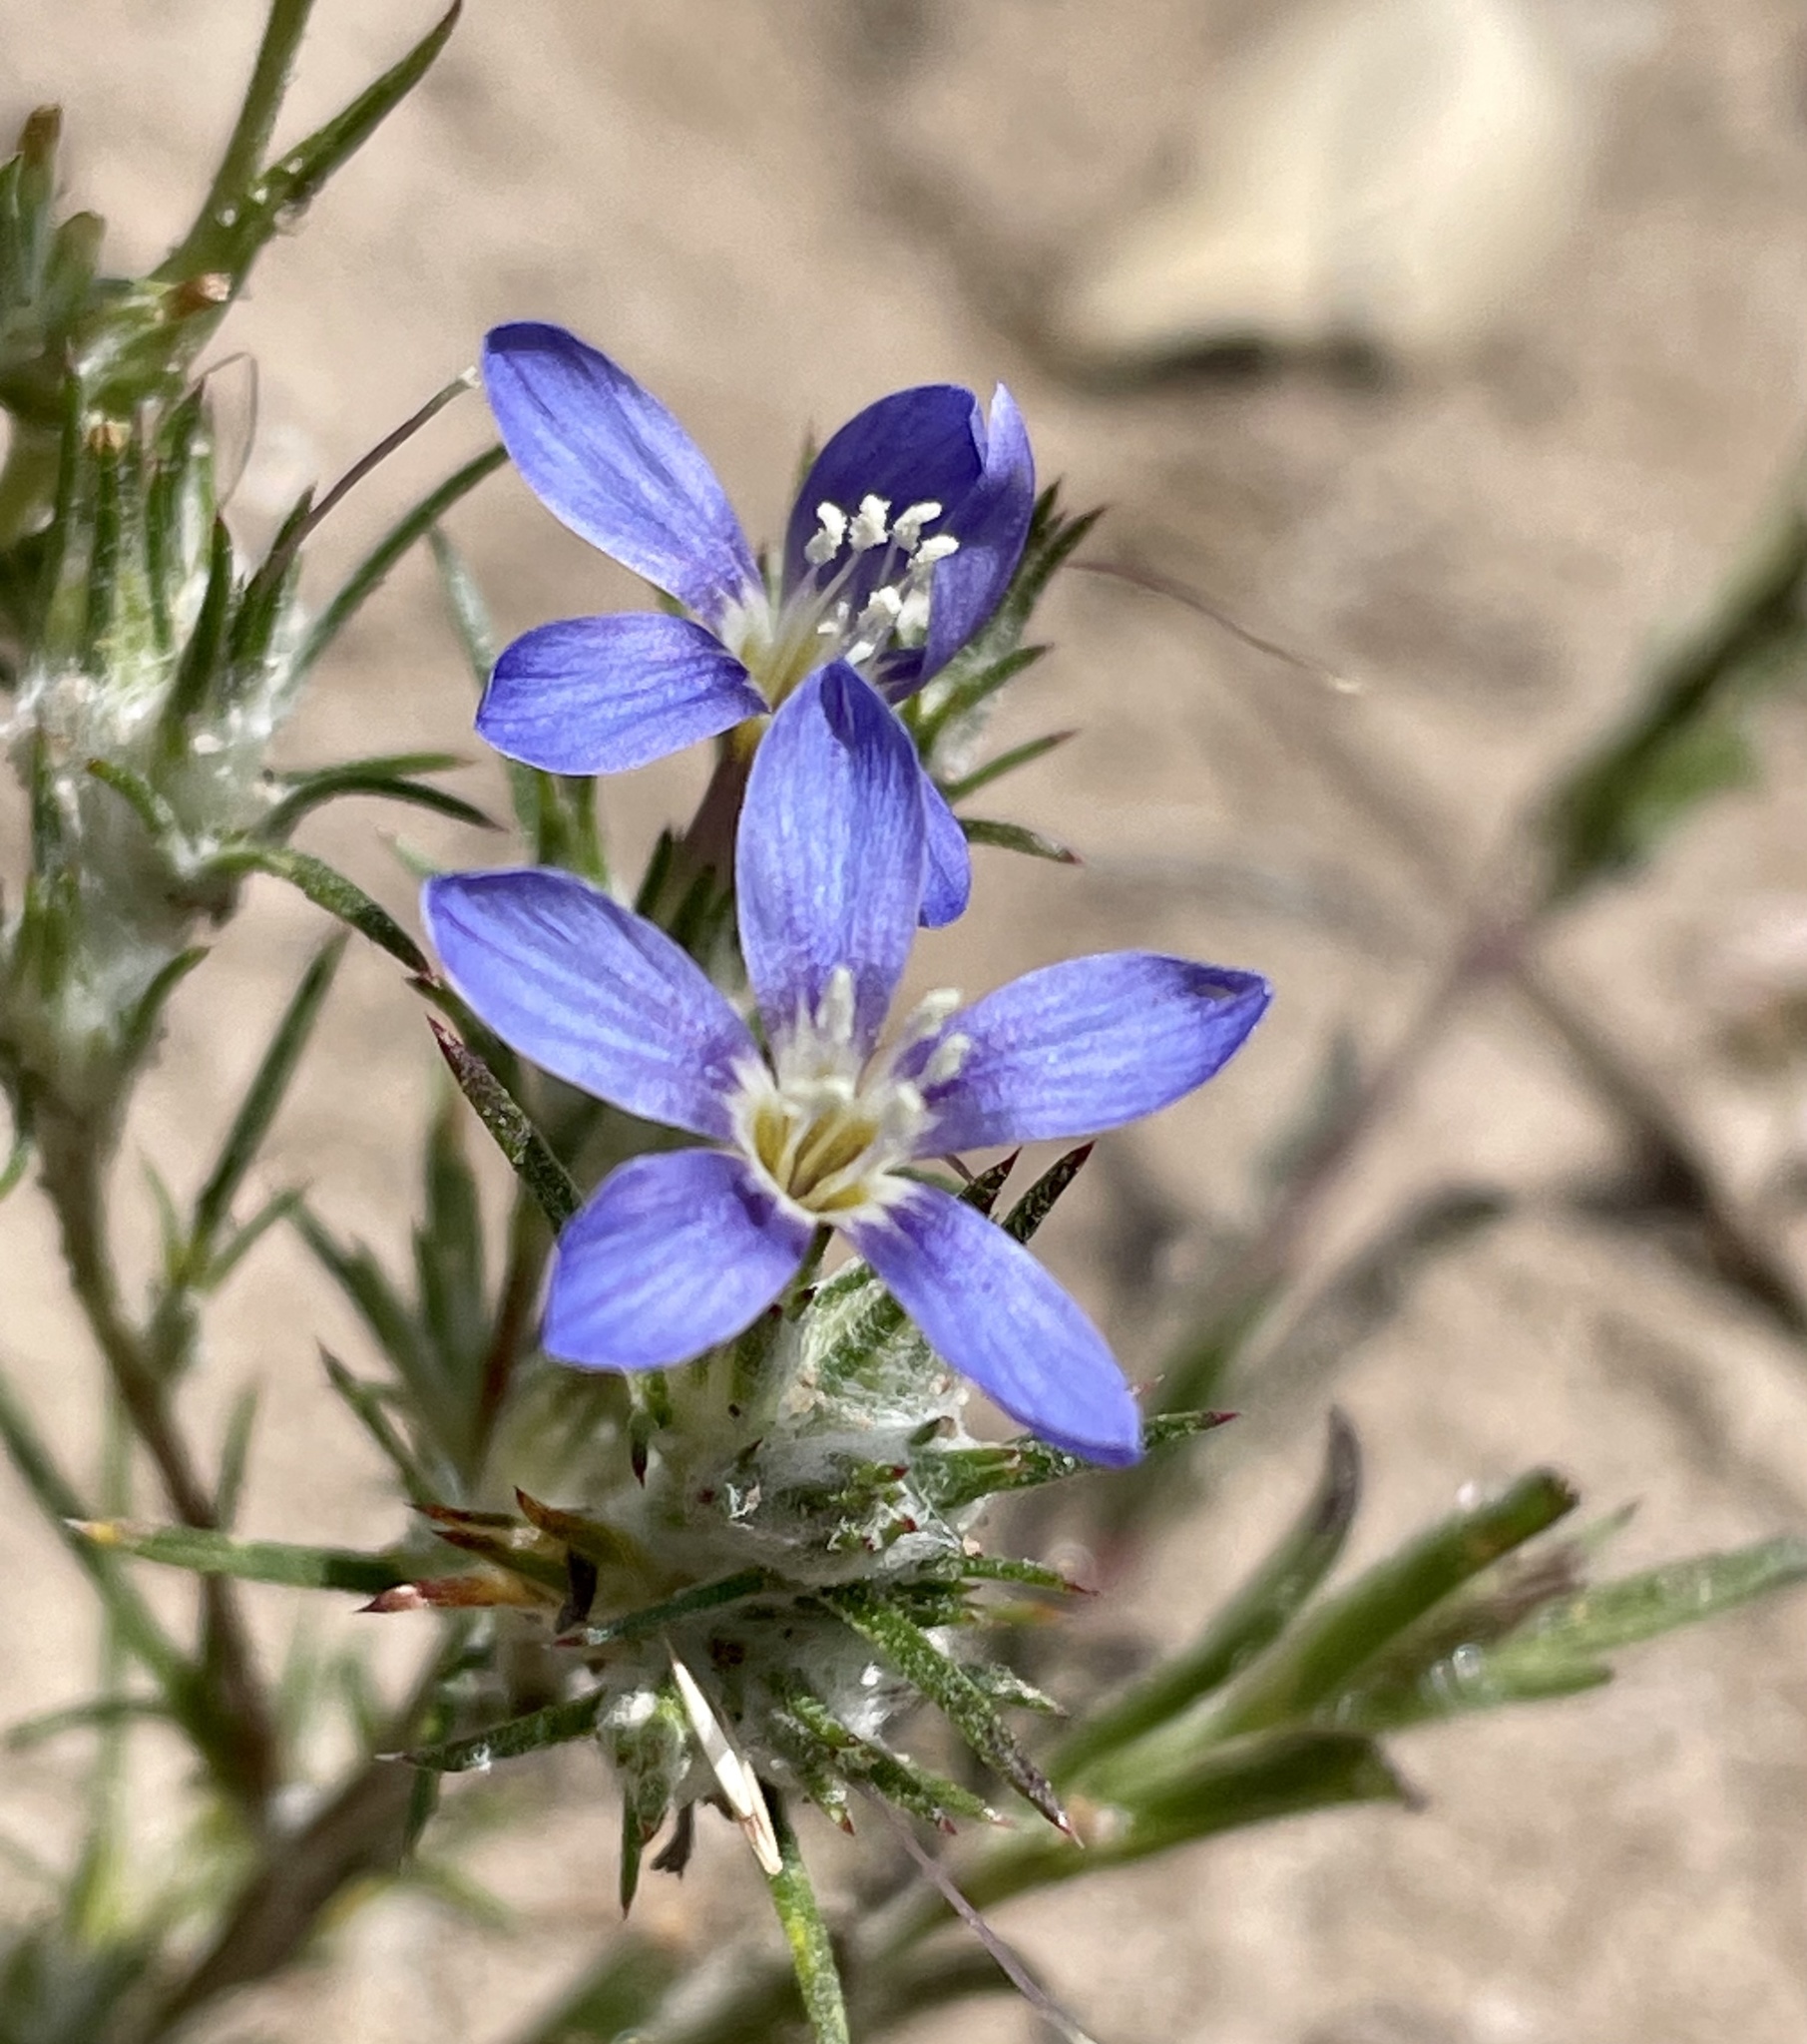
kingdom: Plantae
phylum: Tracheophyta
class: Magnoliopsida
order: Ericales
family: Polemoniaceae
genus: Eriastrum
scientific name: Eriastrum virgatum
